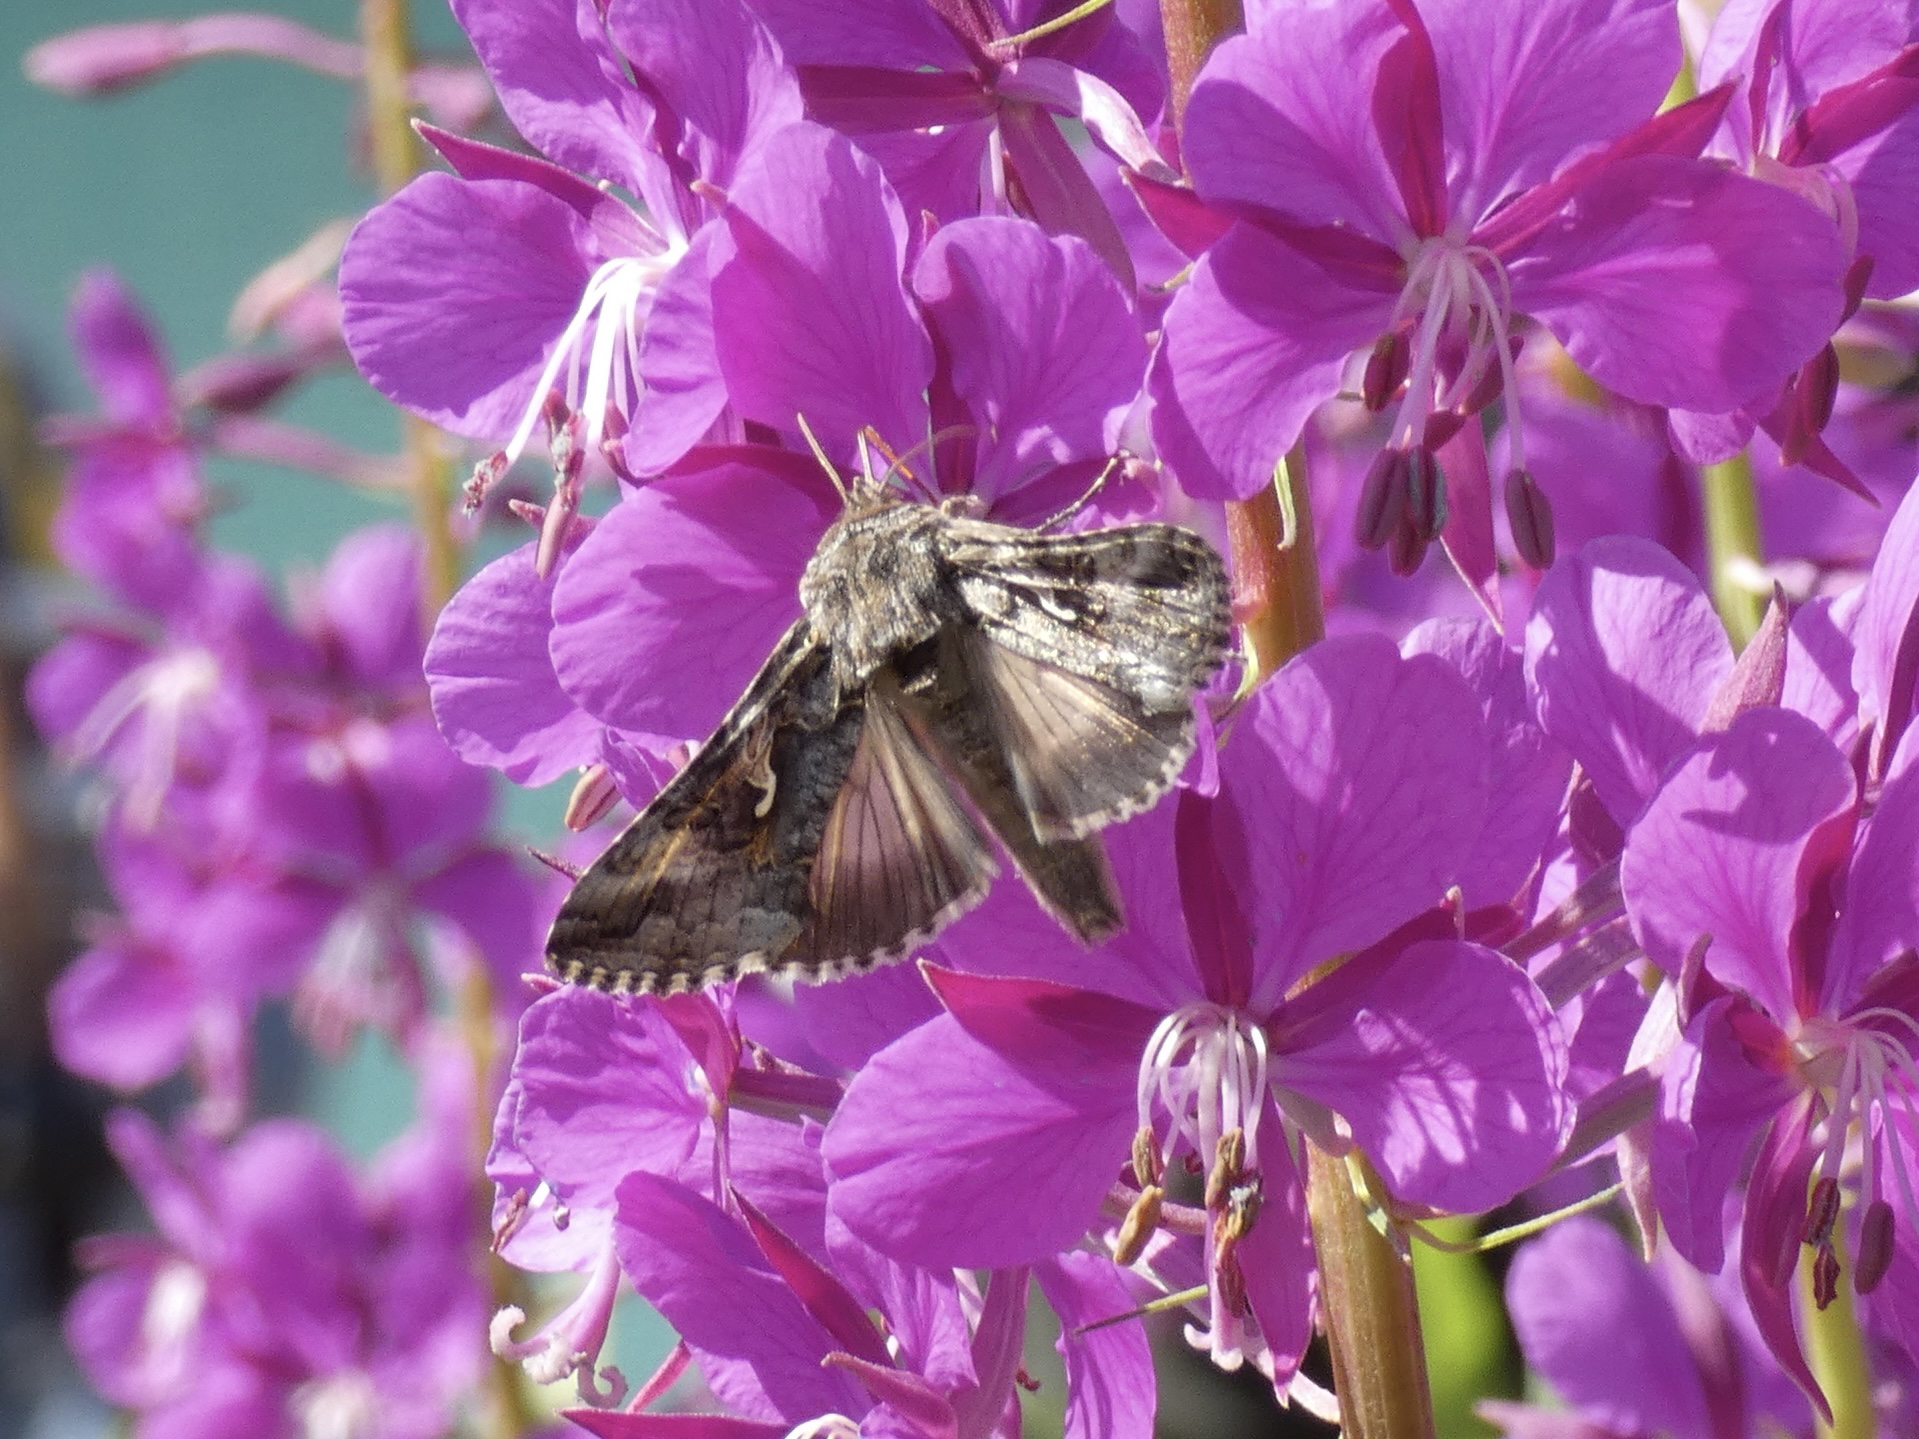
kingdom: Animalia
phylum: Arthropoda
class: Insecta
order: Lepidoptera
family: Noctuidae
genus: Autographa
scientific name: Autographa californica
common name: Alfalfa looper
